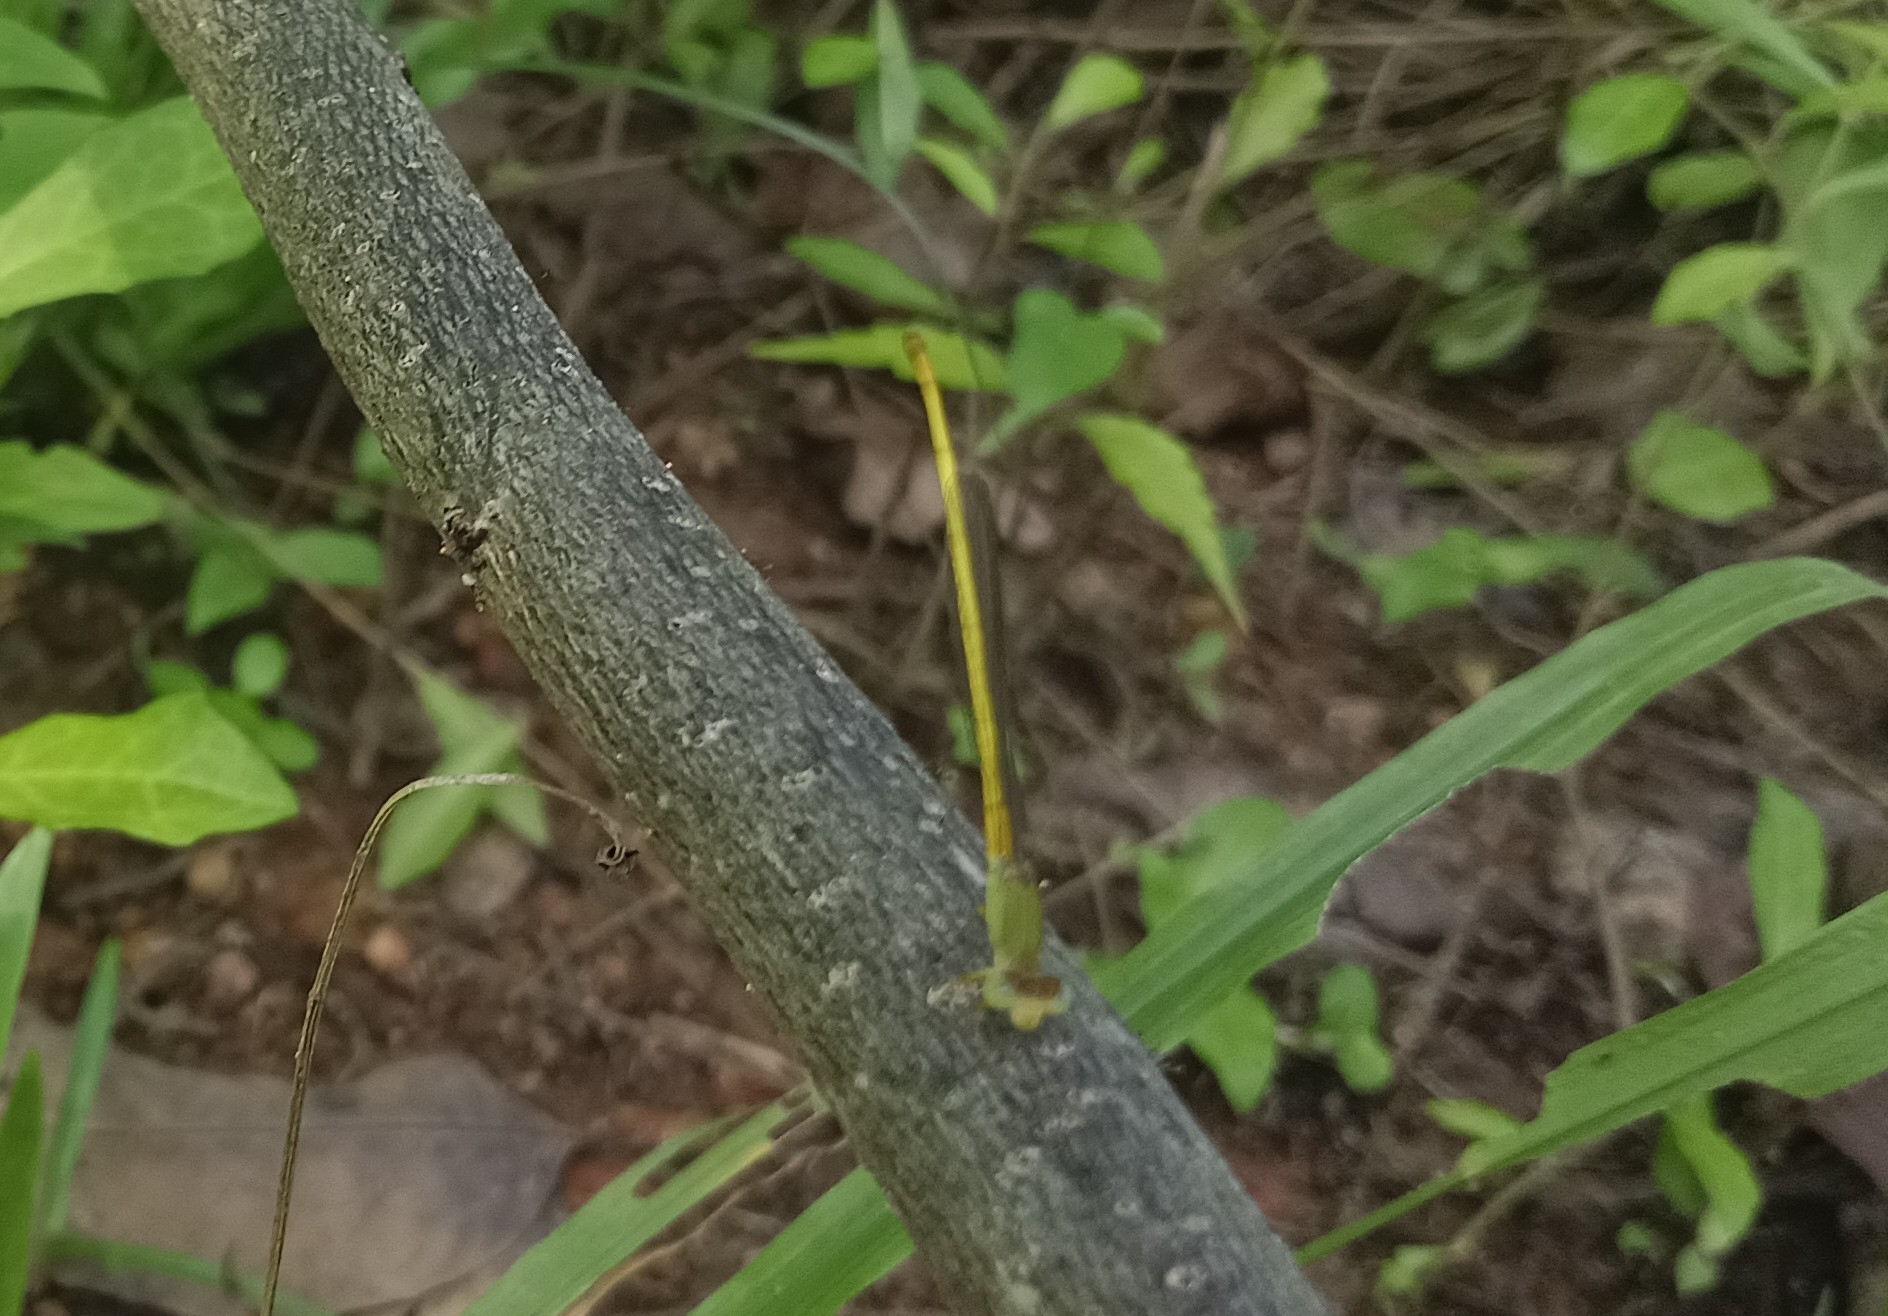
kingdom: Animalia
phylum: Arthropoda
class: Insecta
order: Odonata
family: Coenagrionidae
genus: Ceriagrion
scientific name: Ceriagrion coromandelianum
